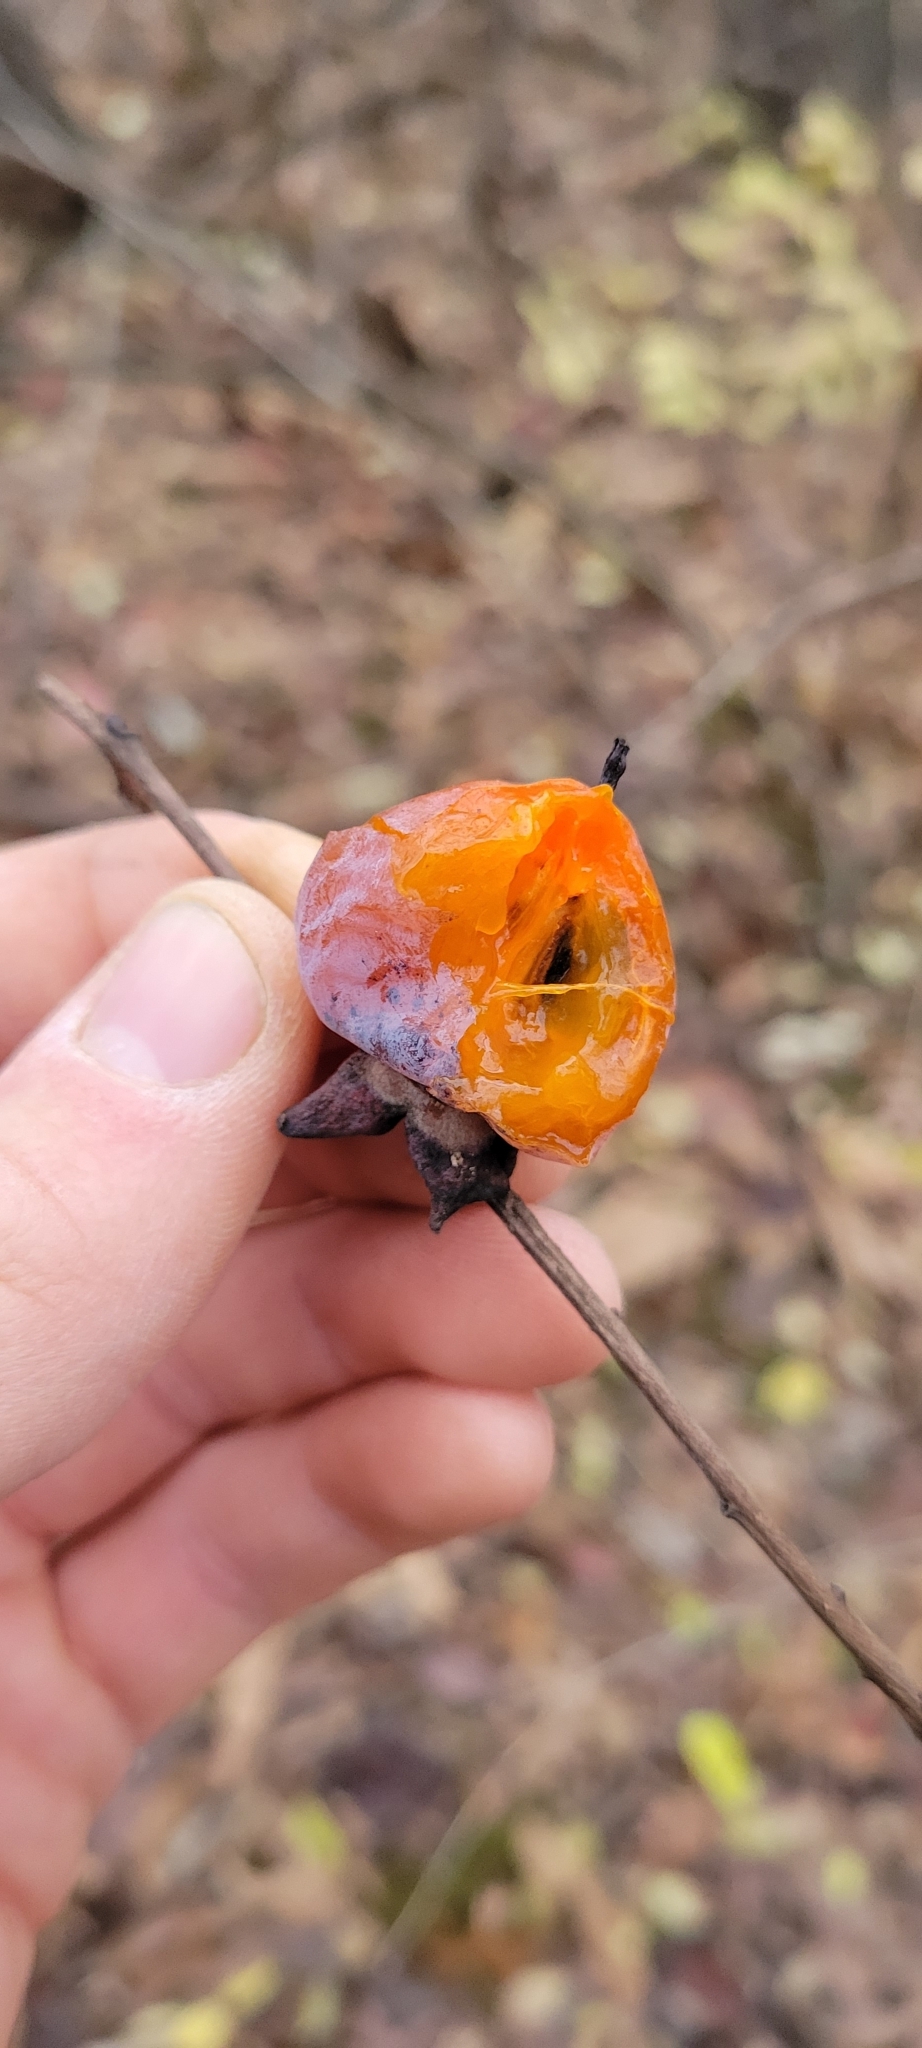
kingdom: Plantae
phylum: Tracheophyta
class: Magnoliopsida
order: Ericales
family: Ebenaceae
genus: Diospyros
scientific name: Diospyros virginiana
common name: Persimmon
